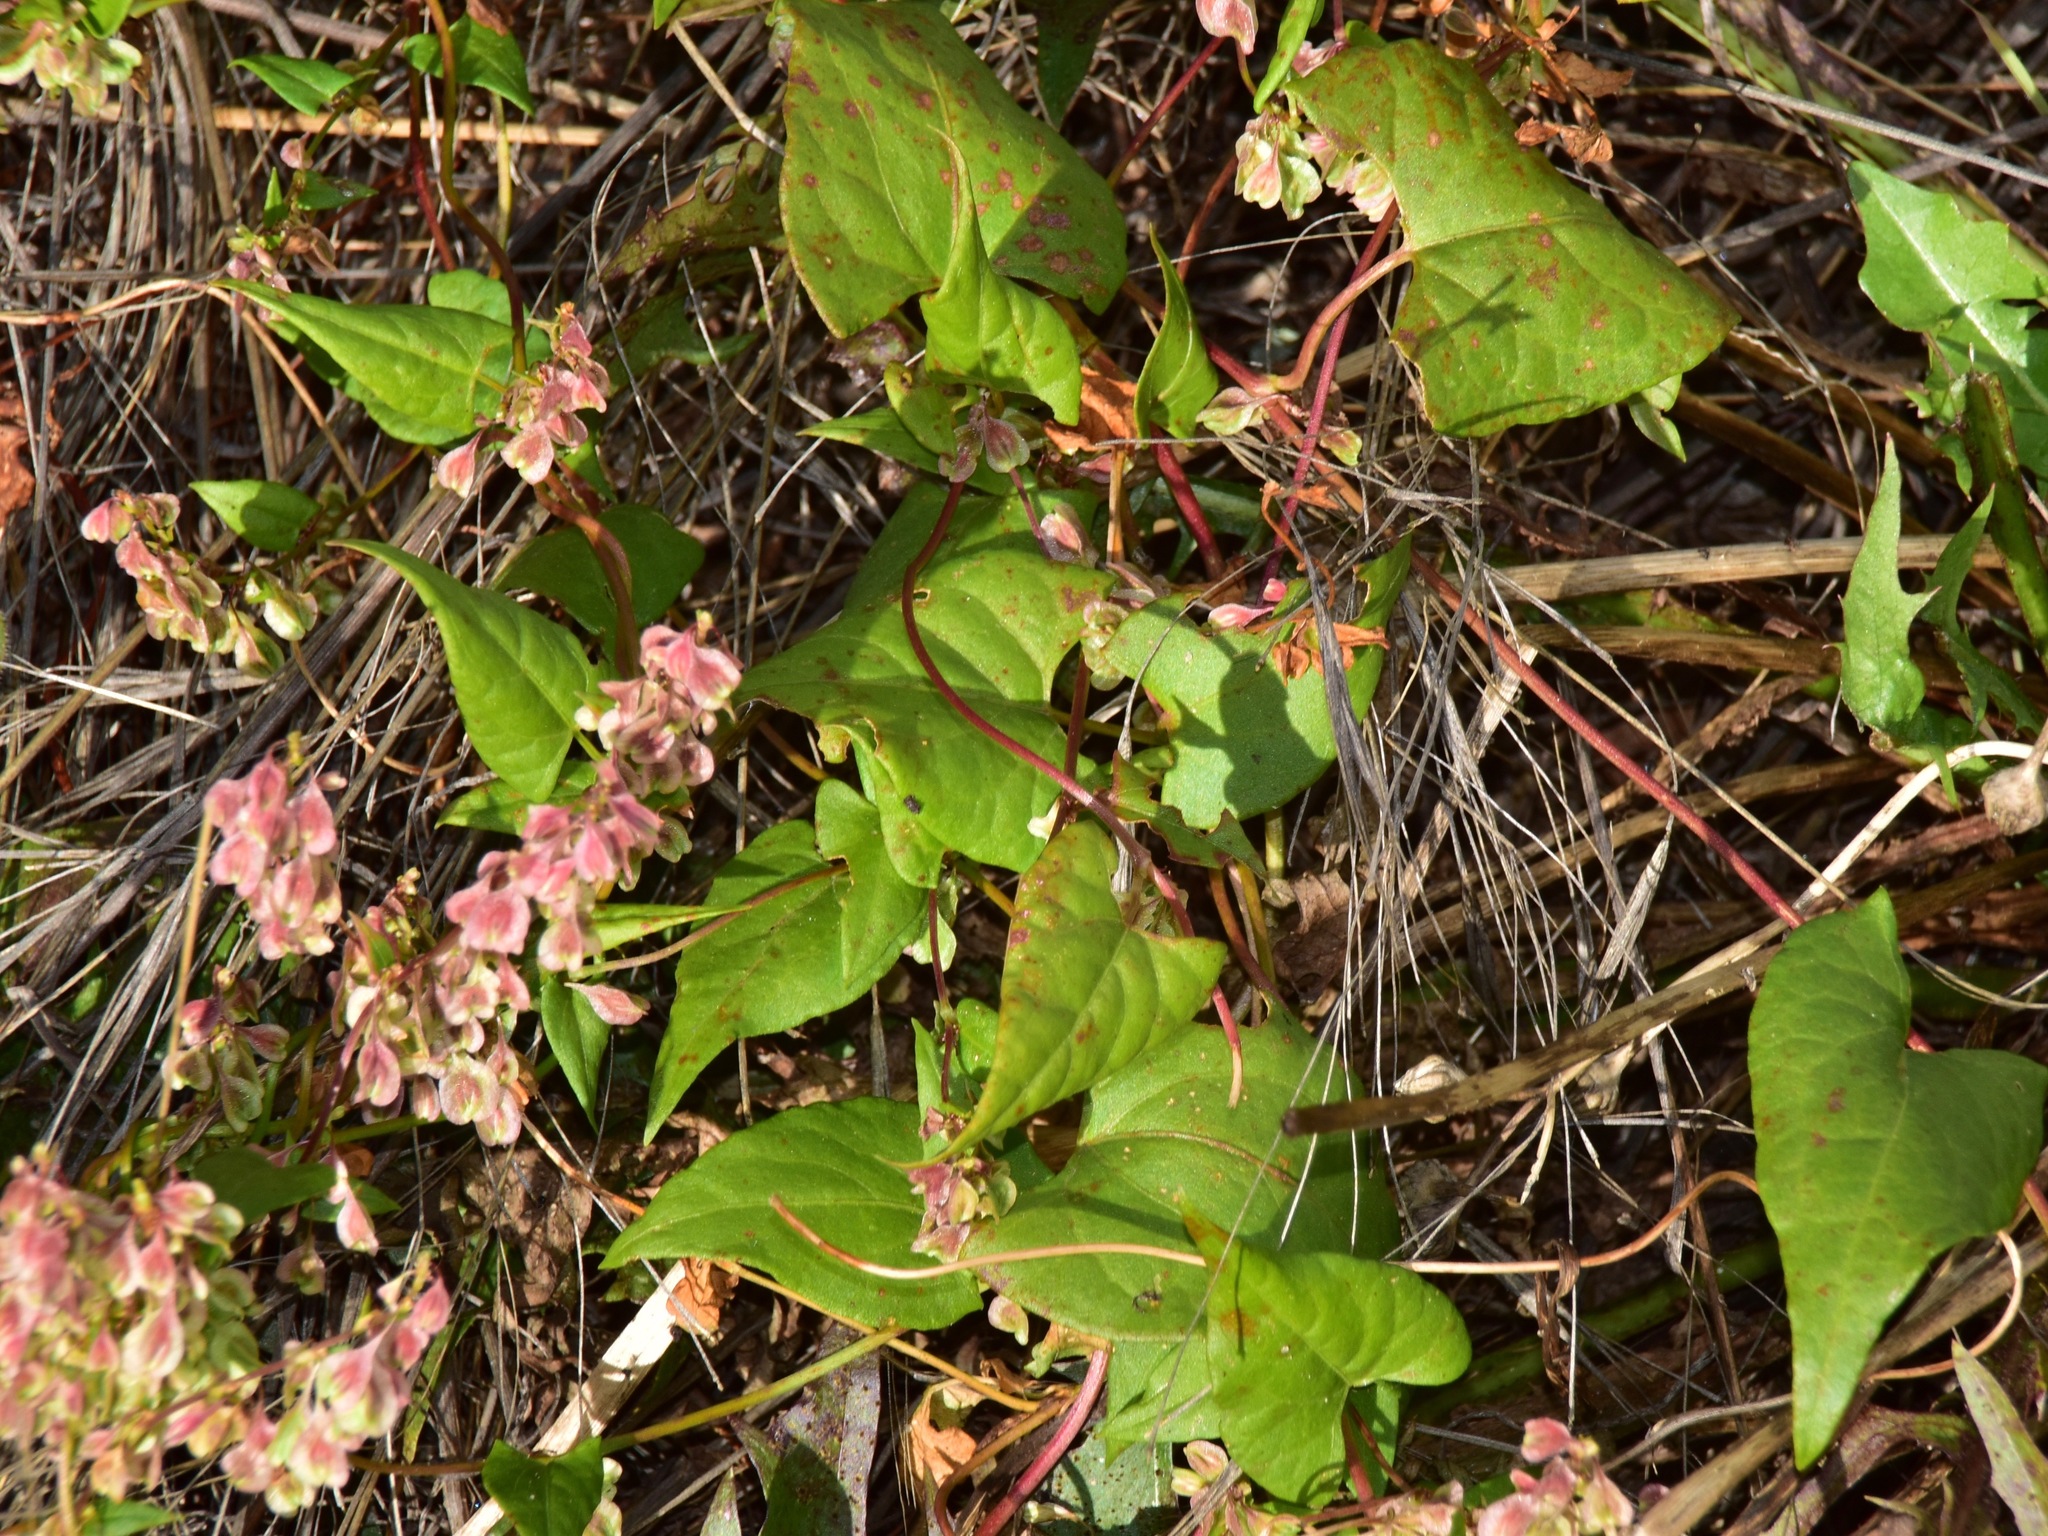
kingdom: Plantae
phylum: Tracheophyta
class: Magnoliopsida
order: Caryophyllales
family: Polygonaceae
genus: Fallopia
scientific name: Fallopia dumetorum
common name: Copse-bindweed
